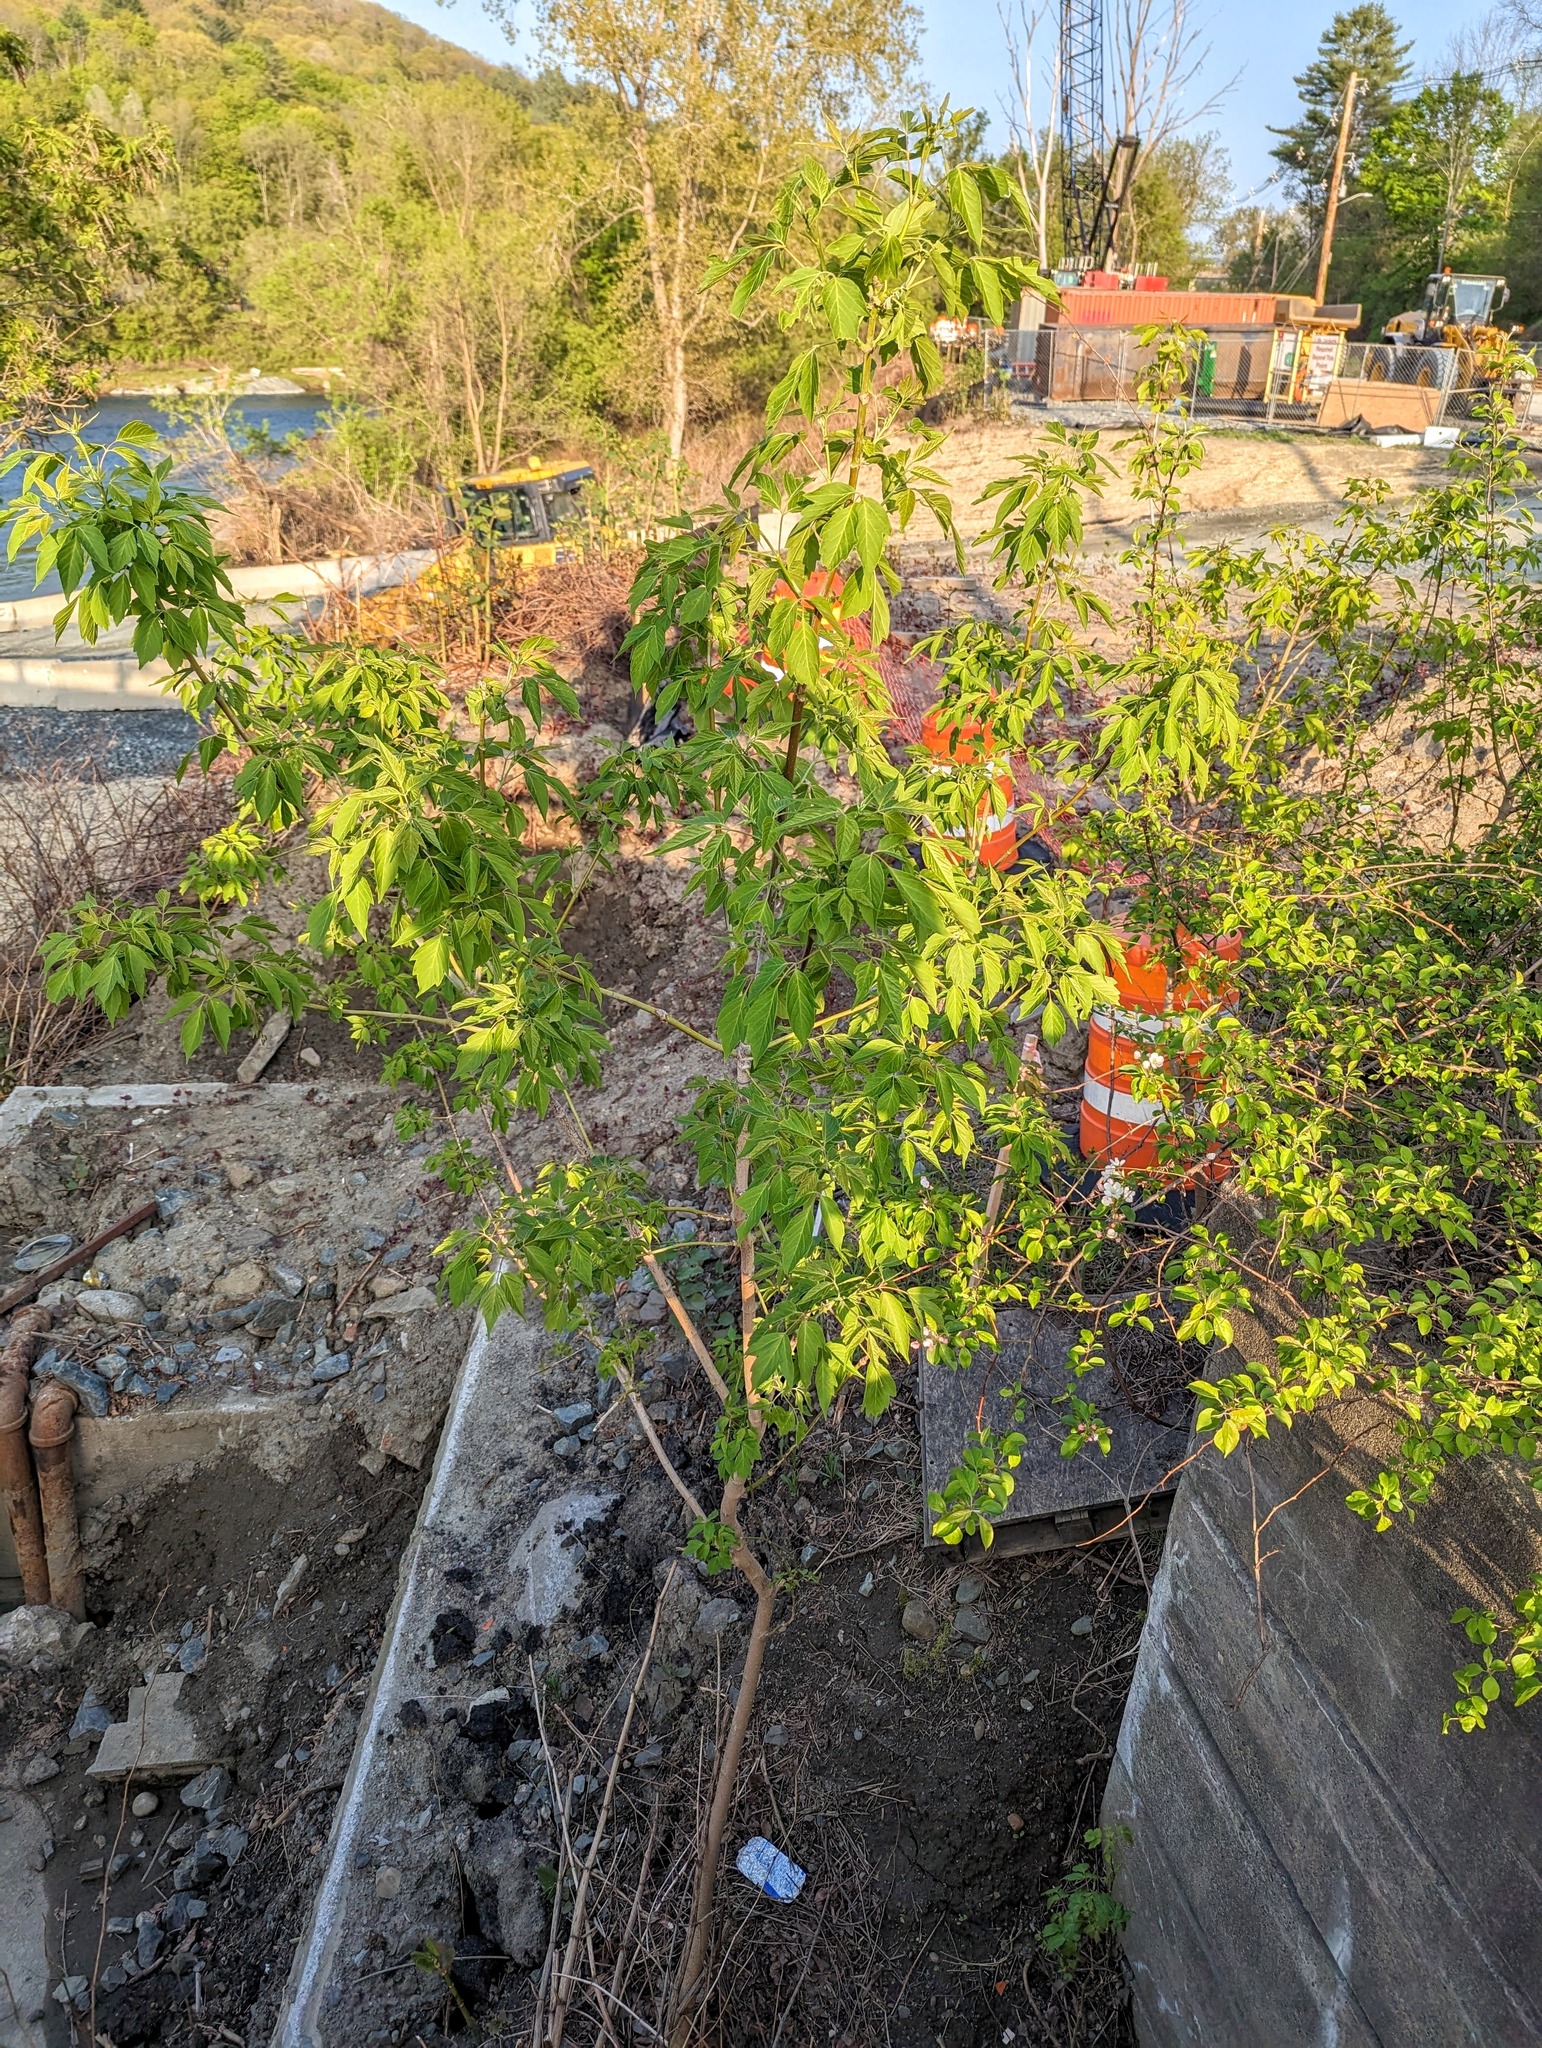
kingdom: Plantae
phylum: Tracheophyta
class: Magnoliopsida
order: Sapindales
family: Sapindaceae
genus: Acer
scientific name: Acer negundo
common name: Ashleaf maple
